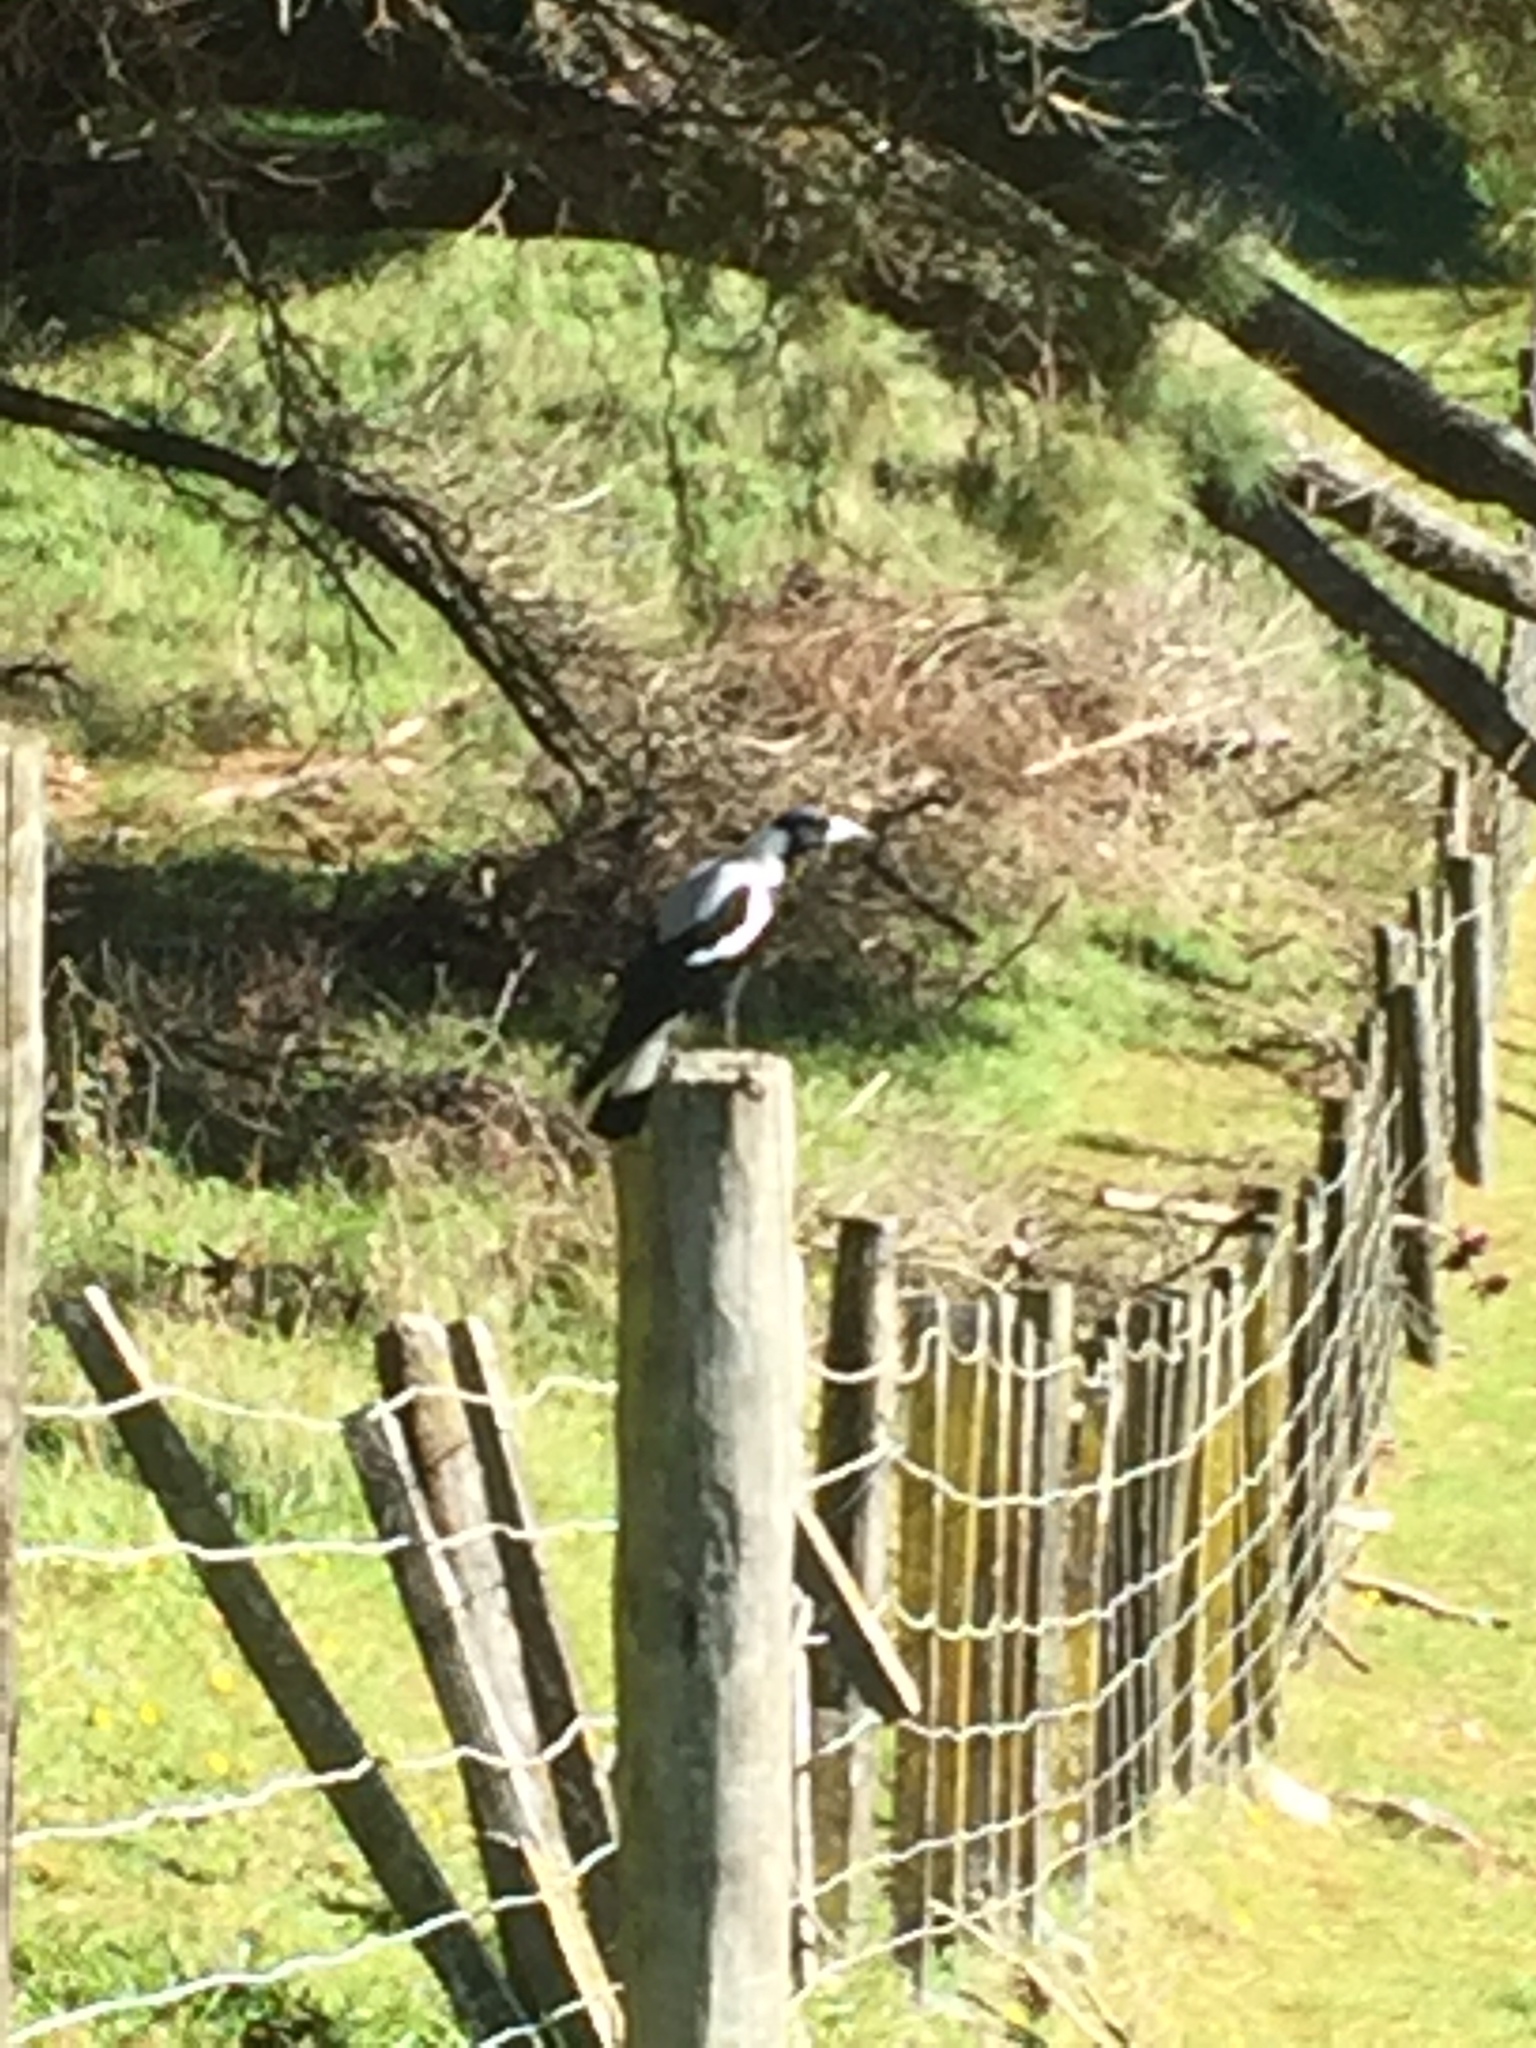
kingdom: Animalia
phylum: Chordata
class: Aves
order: Passeriformes
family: Cracticidae
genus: Gymnorhina
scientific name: Gymnorhina tibicen
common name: Australian magpie
